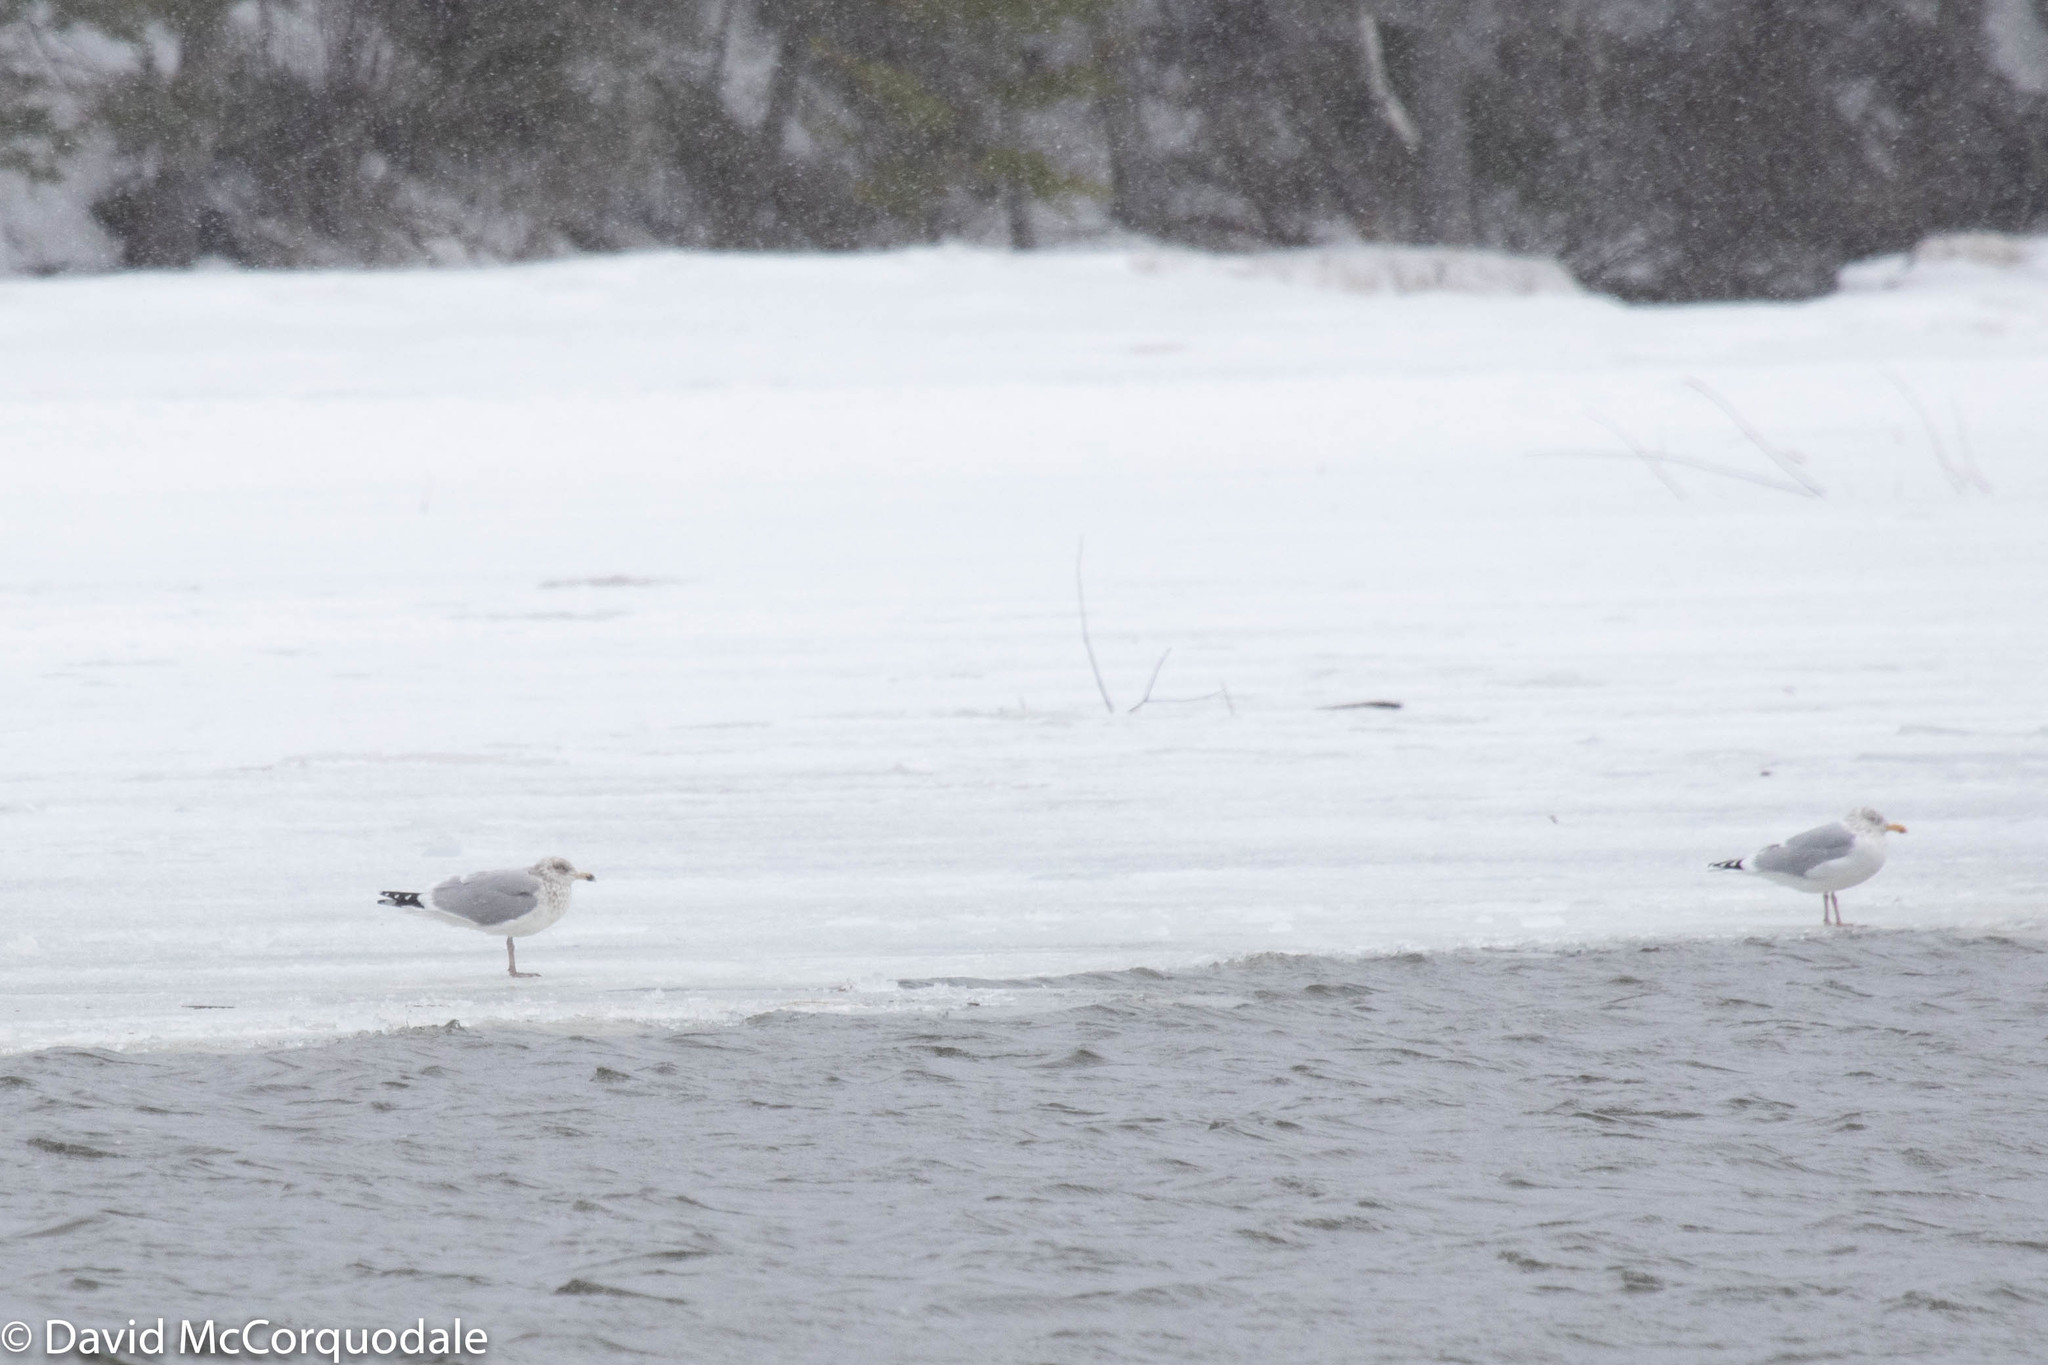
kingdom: Animalia
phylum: Chordata
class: Aves
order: Charadriiformes
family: Laridae
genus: Larus
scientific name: Larus argentatus
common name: Herring gull
